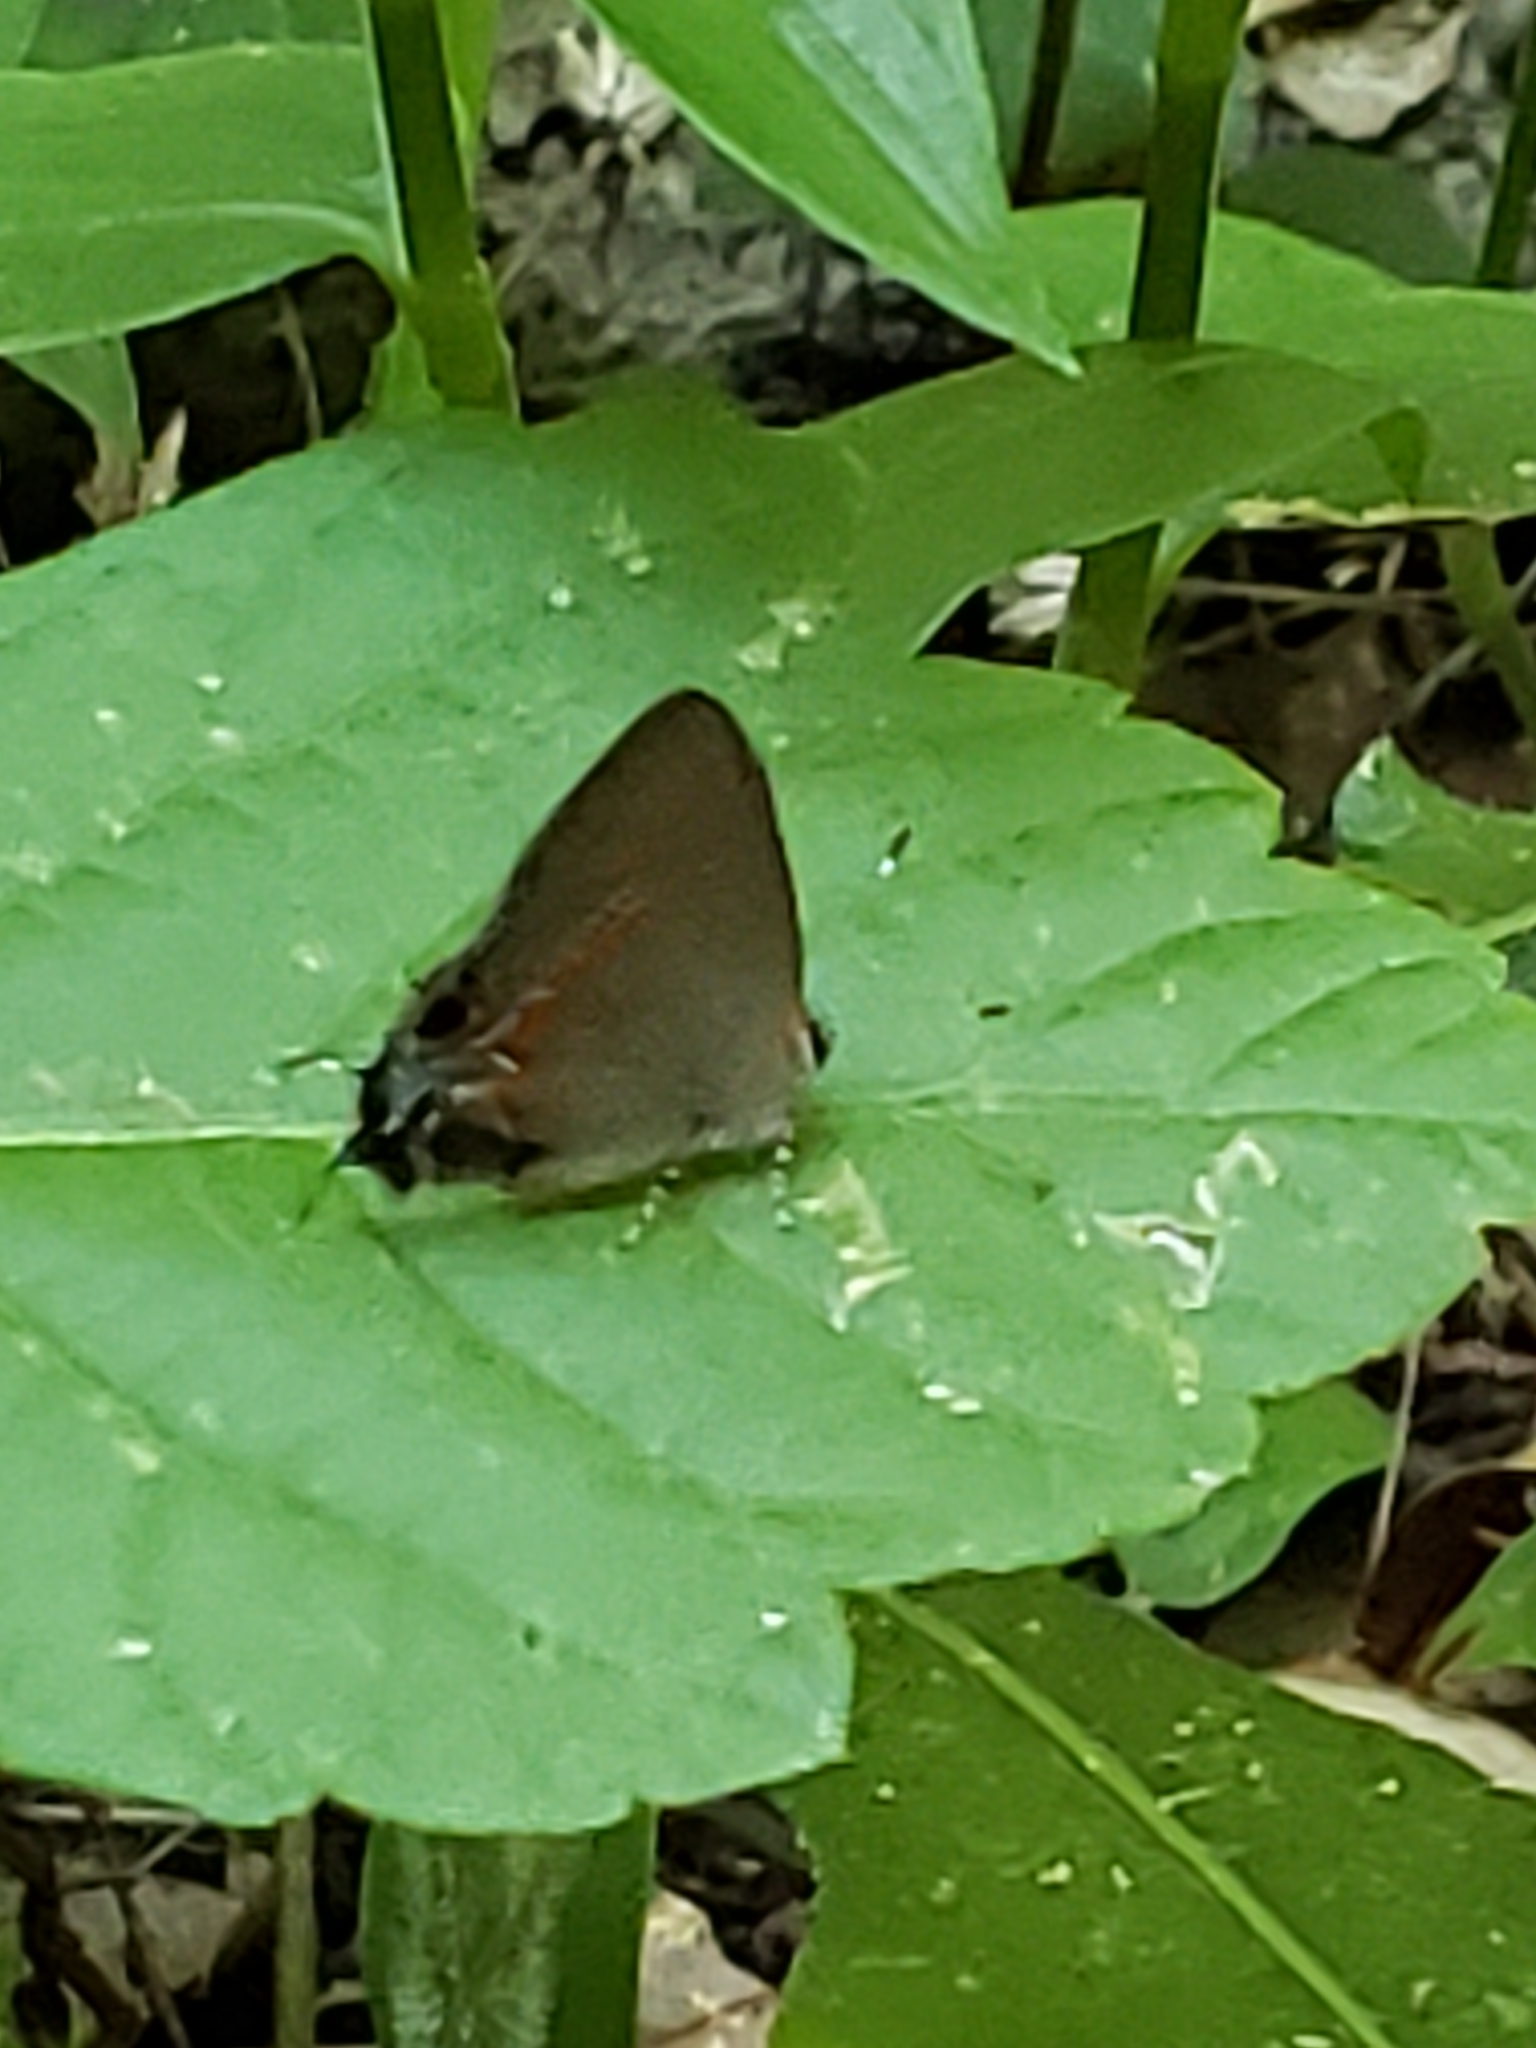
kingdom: Animalia
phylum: Arthropoda
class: Insecta
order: Lepidoptera
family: Lycaenidae
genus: Calycopis
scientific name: Calycopis cecrops
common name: Red-banded hairstreak
